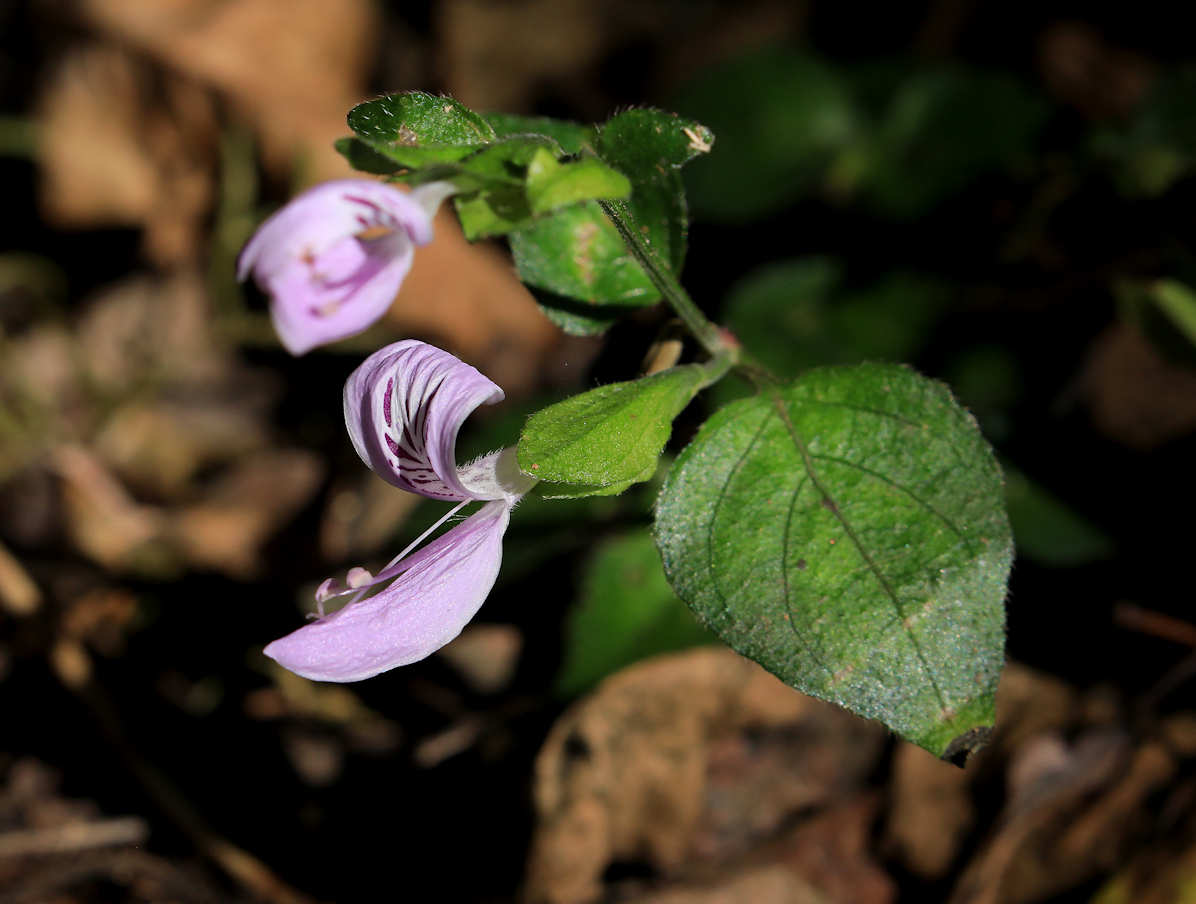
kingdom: Plantae
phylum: Tracheophyta
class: Magnoliopsida
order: Lamiales
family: Acanthaceae
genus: Hypoestes
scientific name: Hypoestes triflora
